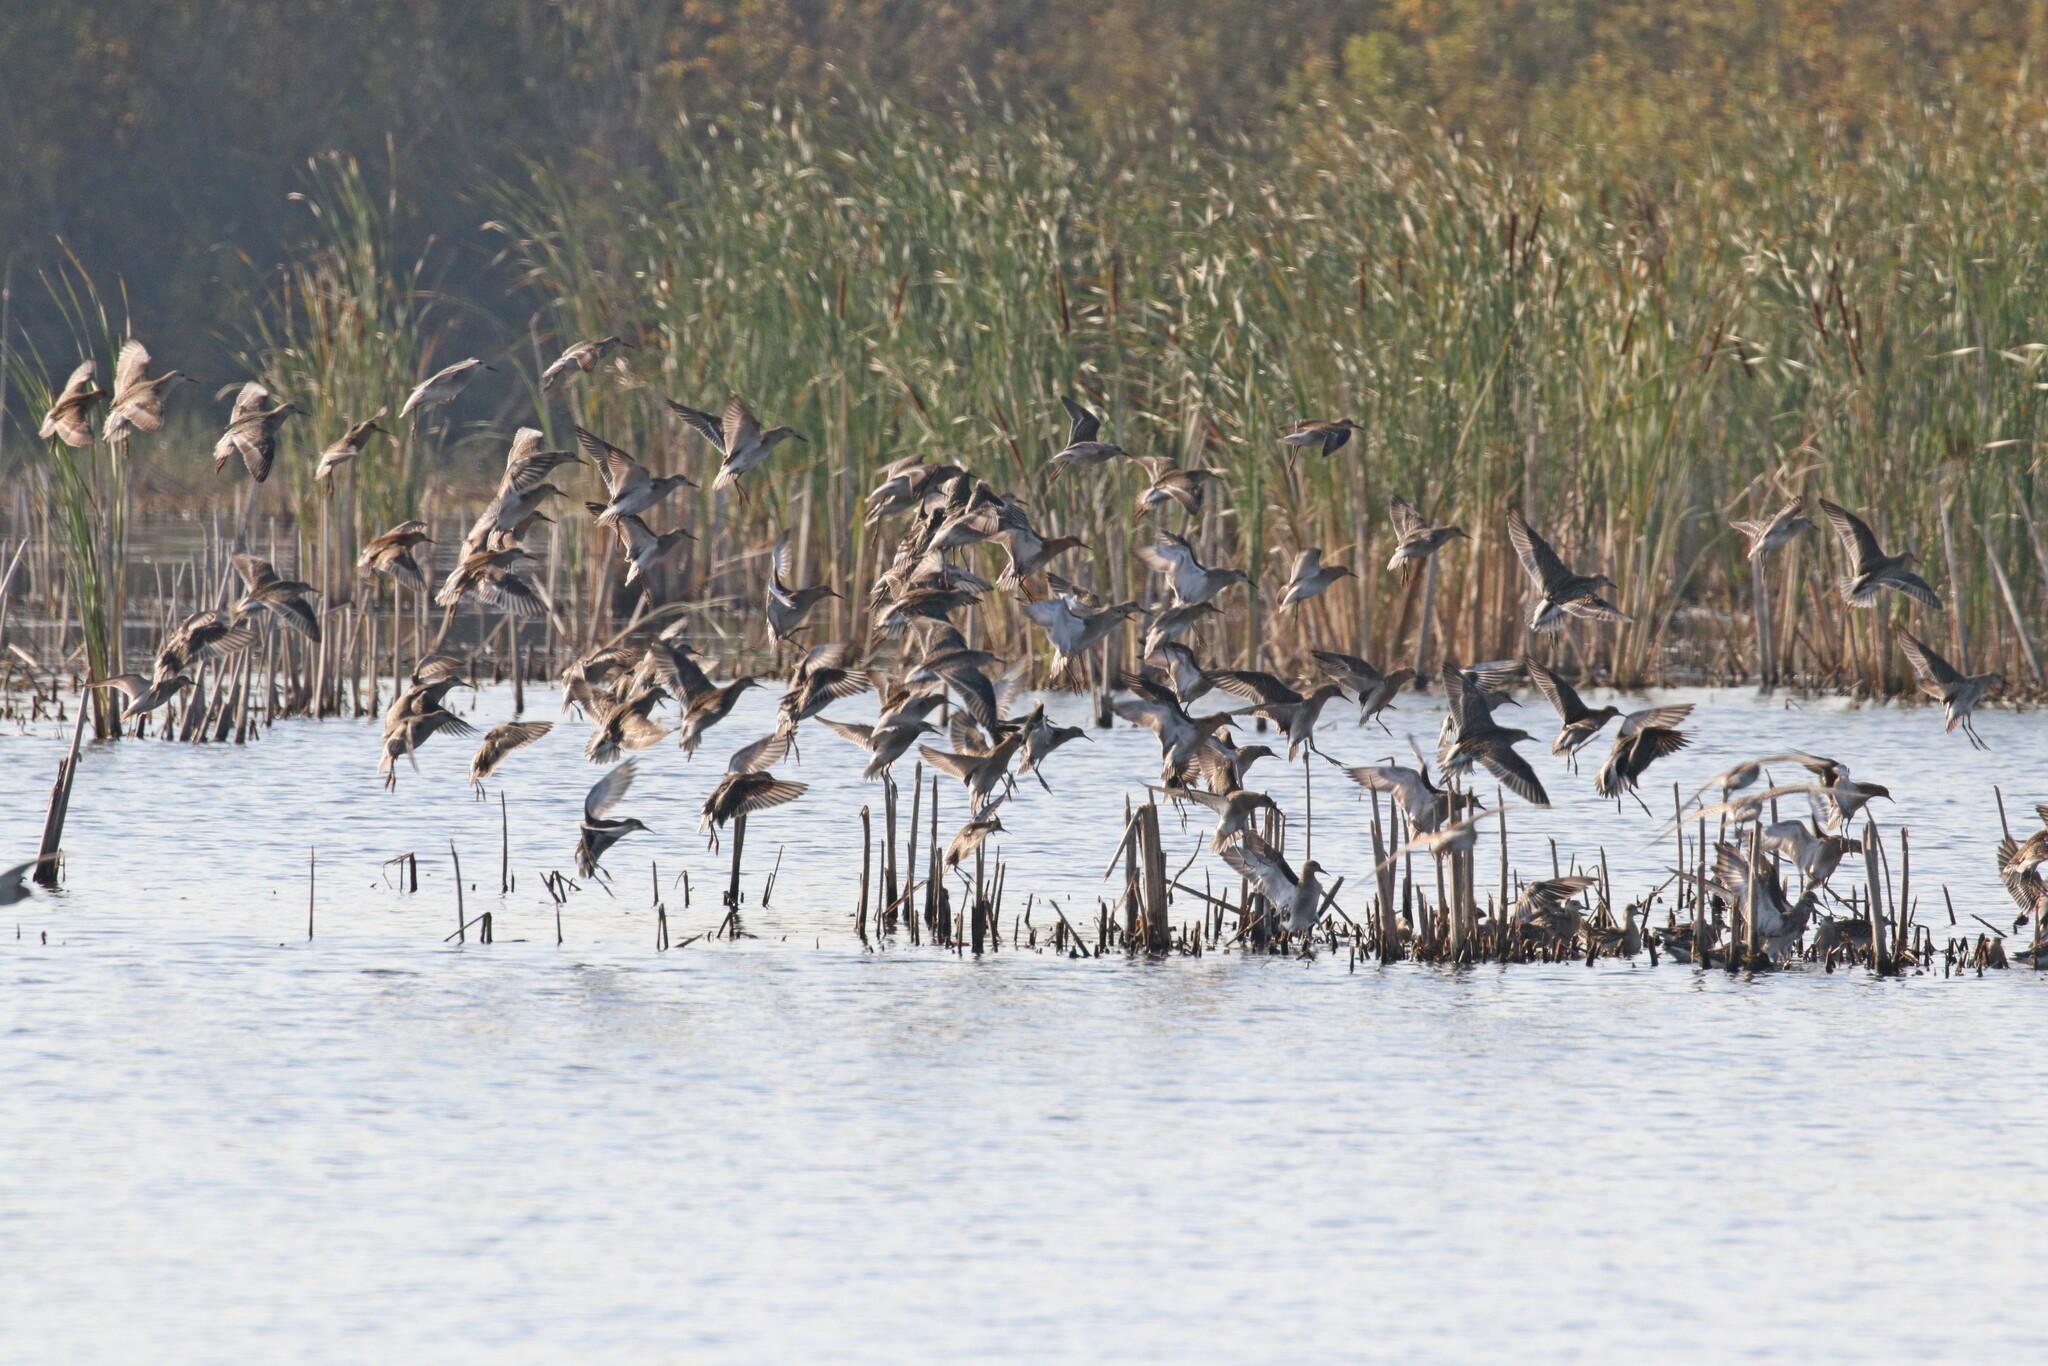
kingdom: Animalia
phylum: Chordata
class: Aves
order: Charadriiformes
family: Scolopacidae
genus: Calidris
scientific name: Calidris pugnax
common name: Ruff
